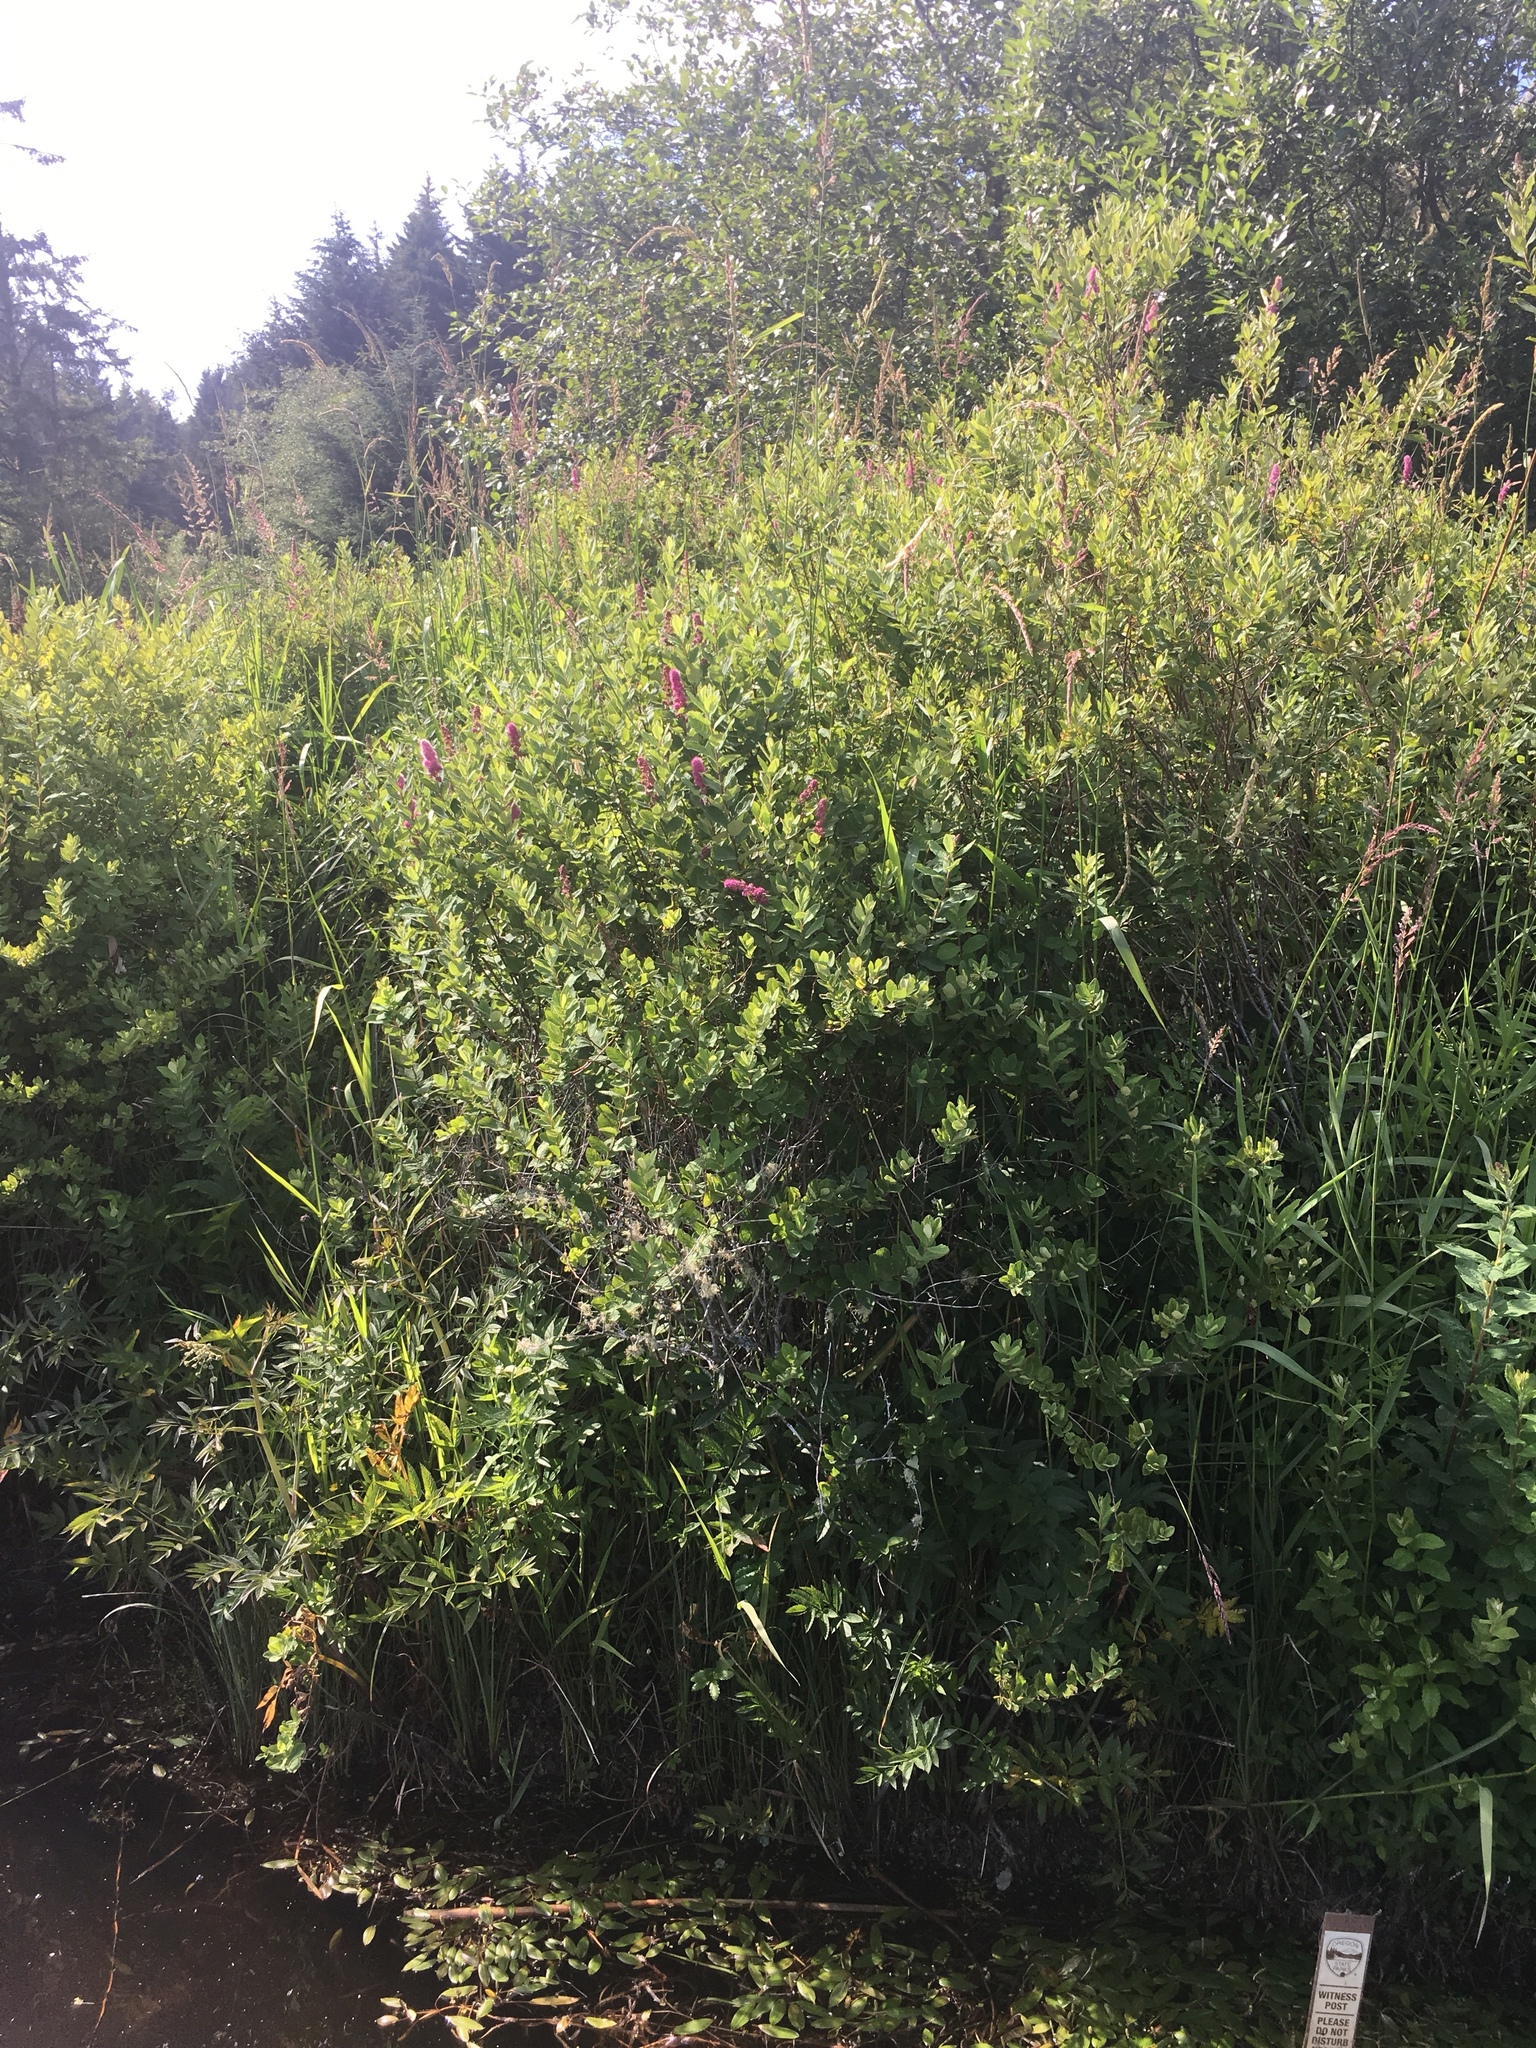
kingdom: Plantae
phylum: Tracheophyta
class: Magnoliopsida
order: Rosales
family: Rosaceae
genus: Spiraea
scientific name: Spiraea douglasii
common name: Steeplebush
